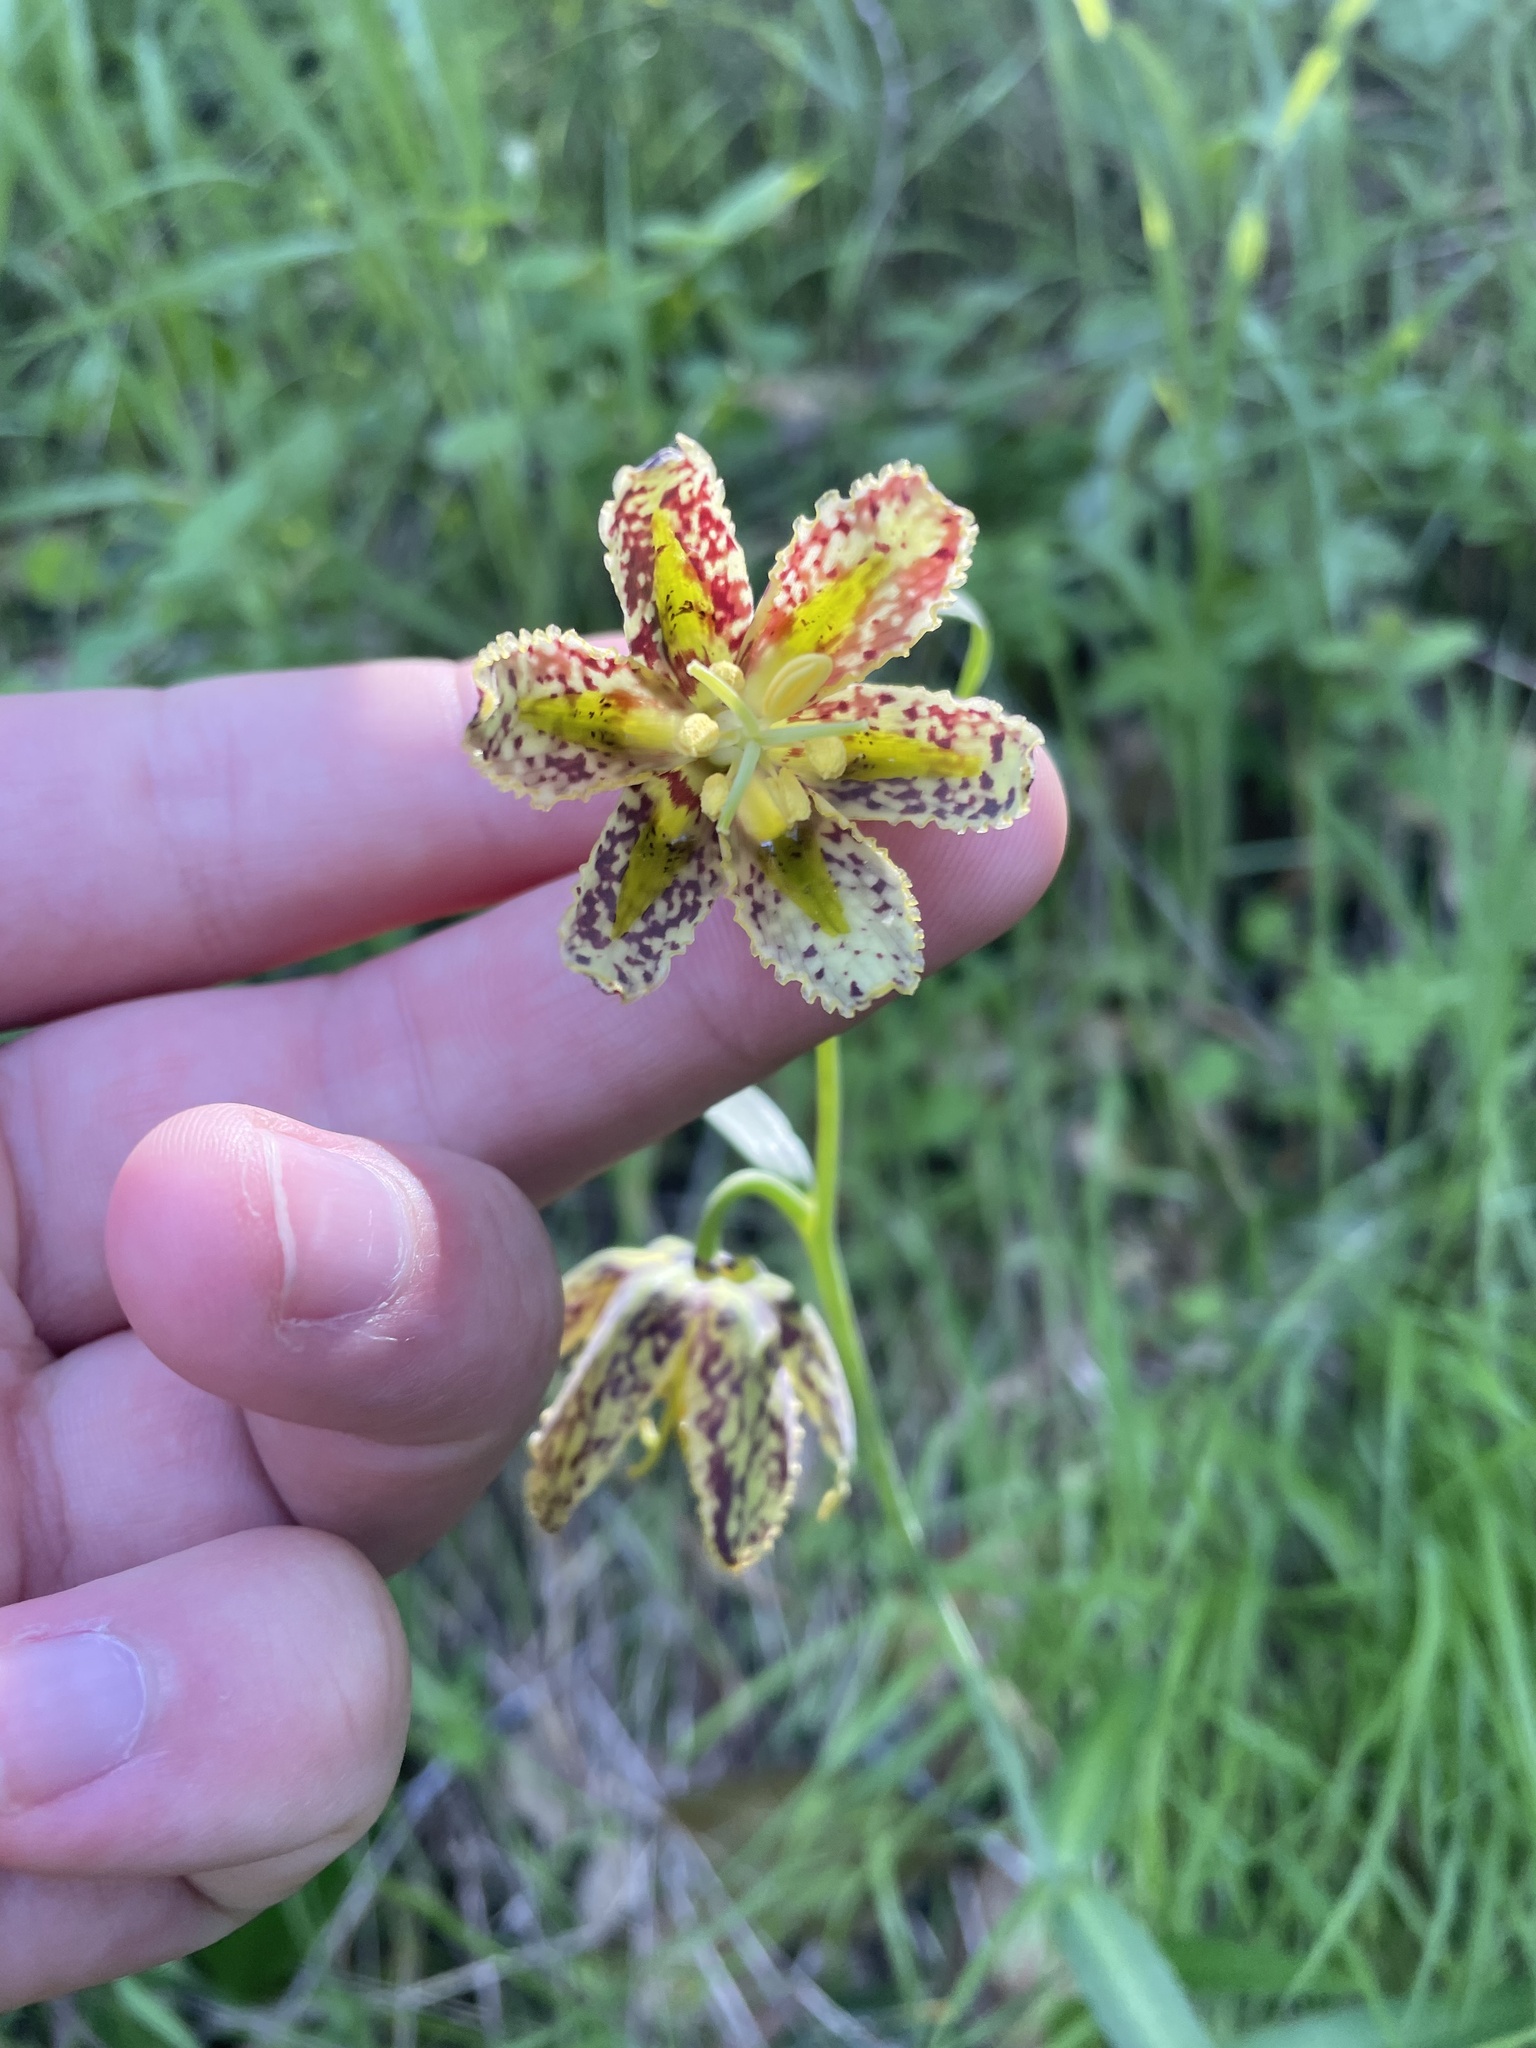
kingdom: Plantae
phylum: Tracheophyta
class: Liliopsida
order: Liliales
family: Liliaceae
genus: Fritillaria
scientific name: Fritillaria affinis
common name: Ojai fritillary
